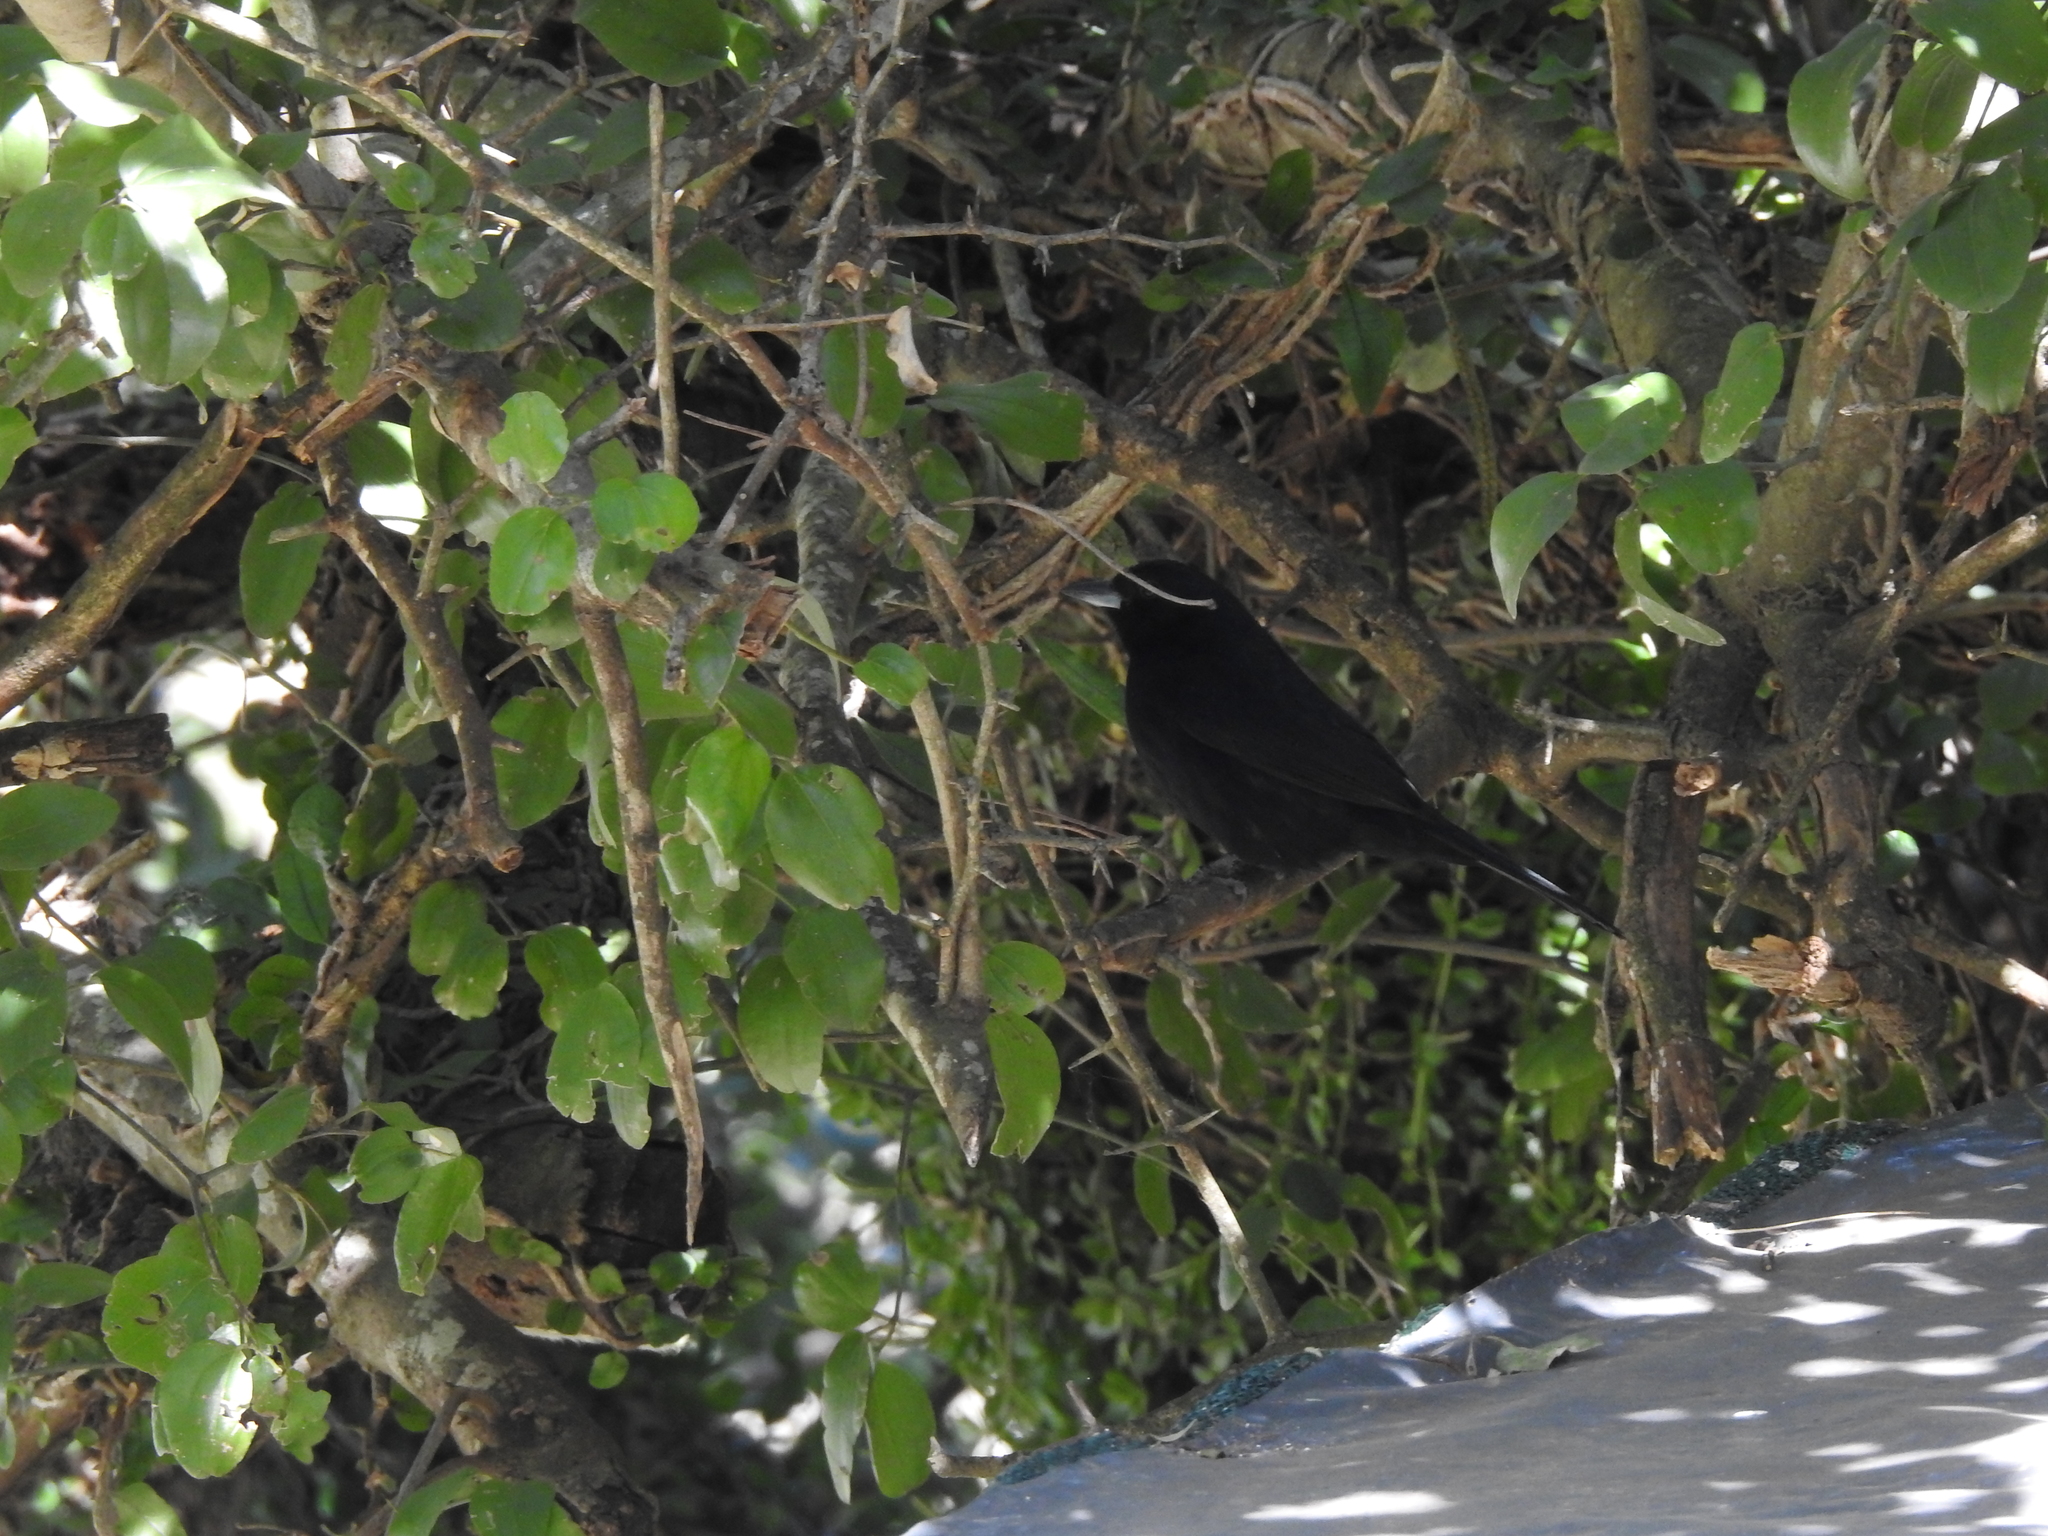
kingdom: Animalia
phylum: Chordata
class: Aves
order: Passeriformes
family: Thraupidae
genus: Tachyphonus
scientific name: Tachyphonus rufus
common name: White-lined tanager
